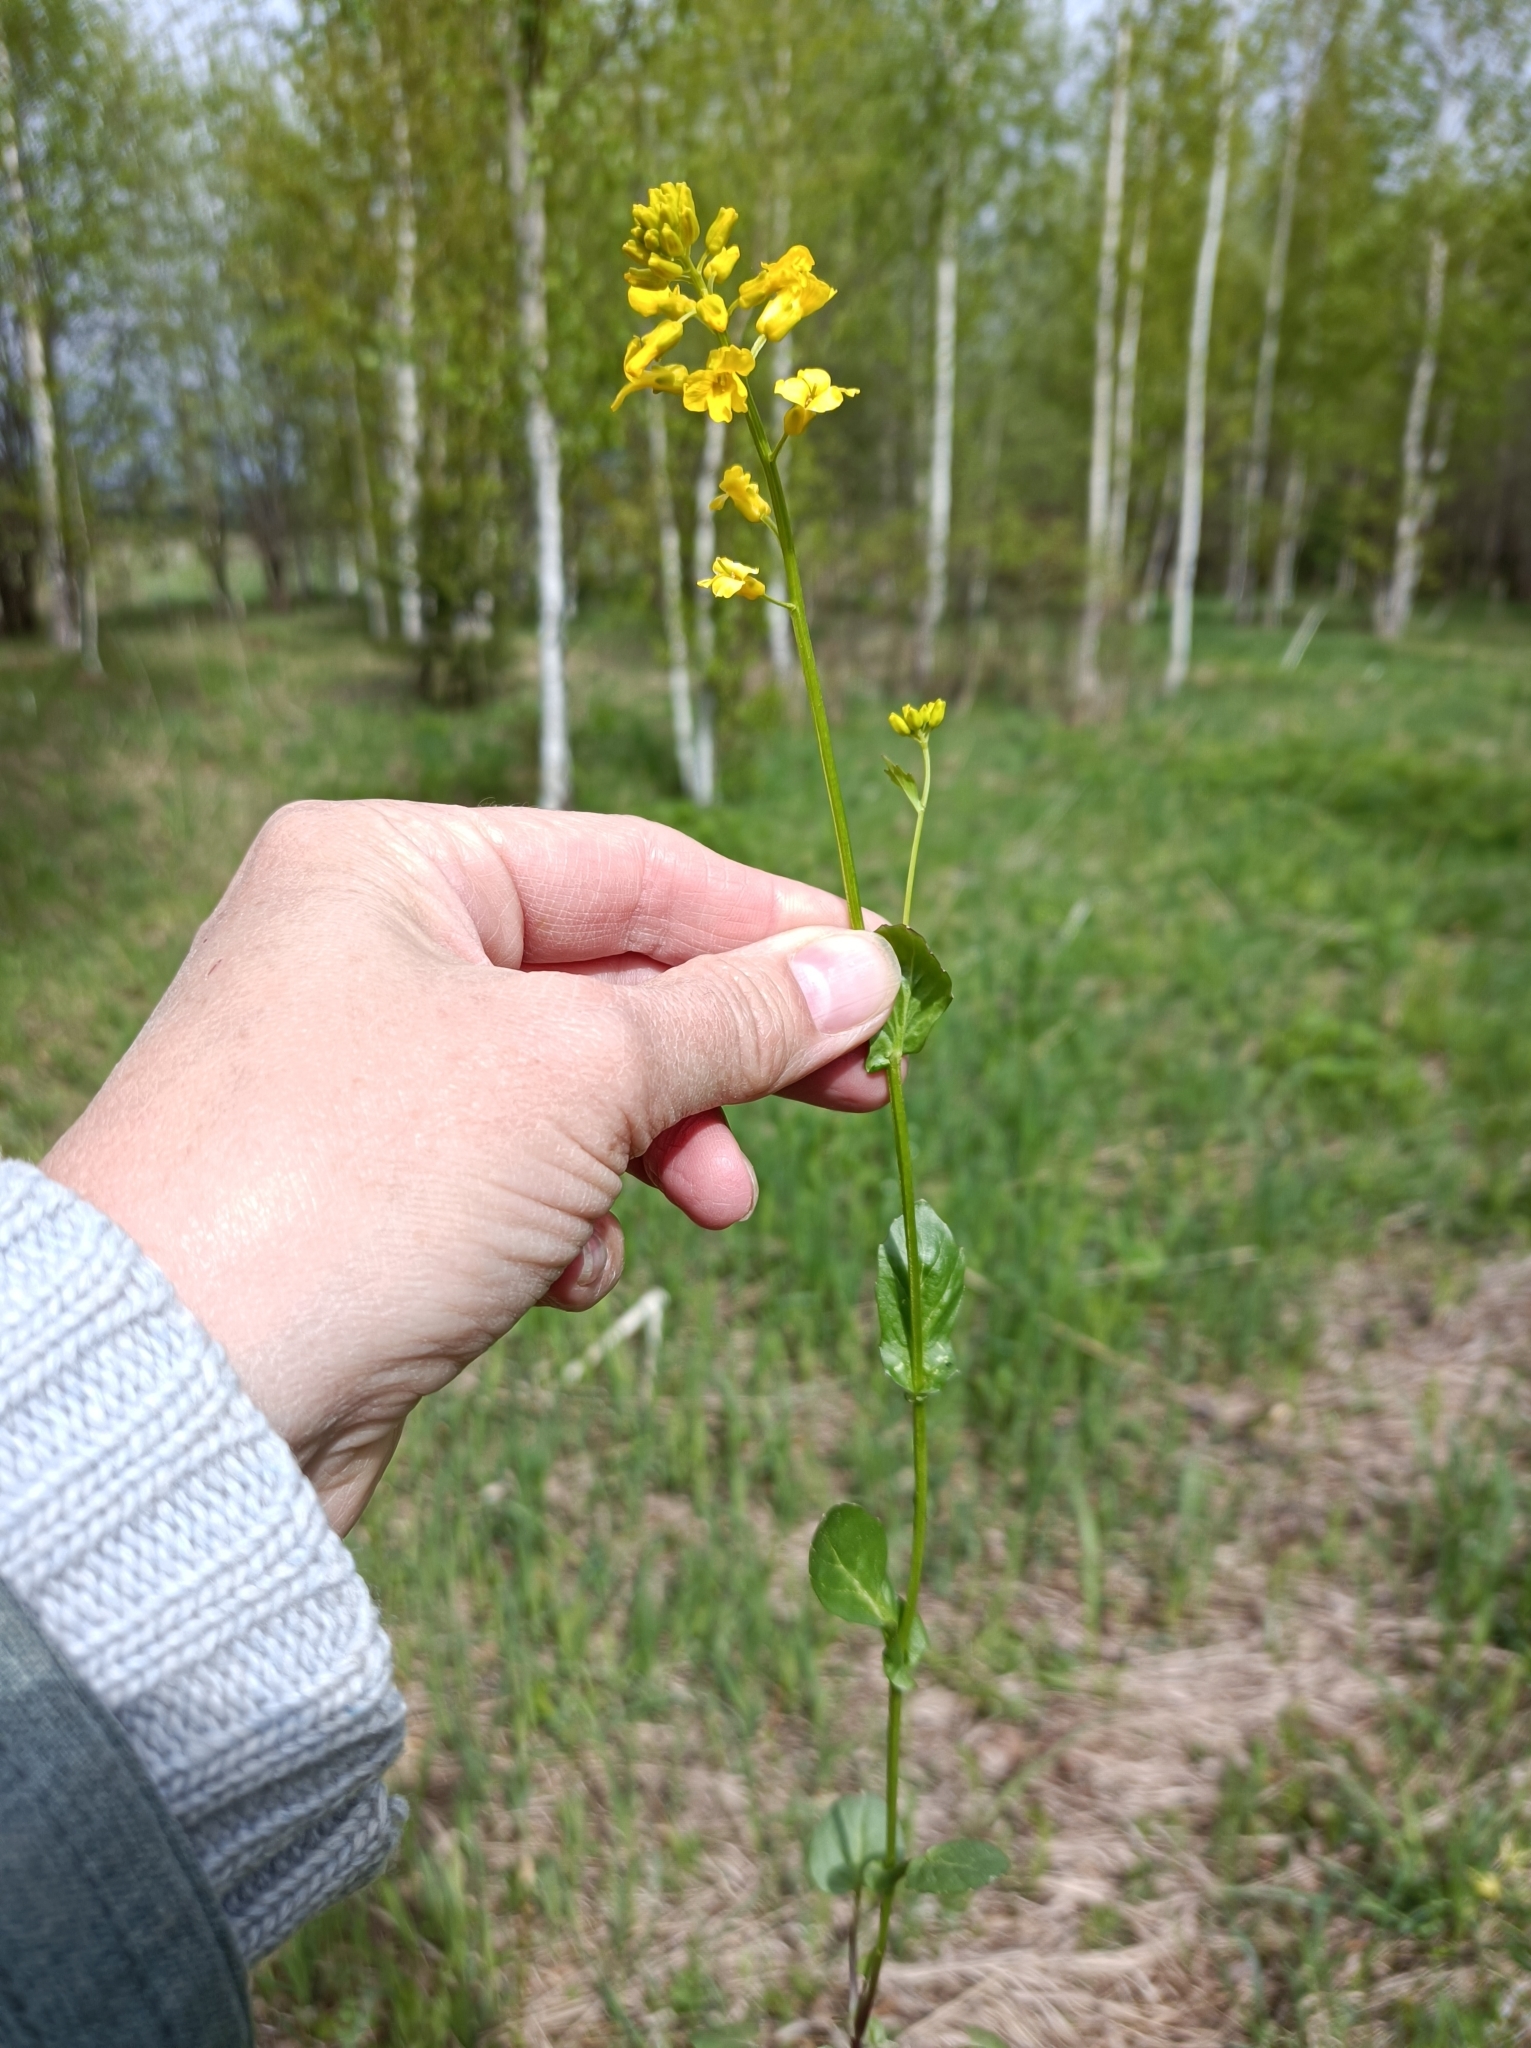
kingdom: Plantae
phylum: Tracheophyta
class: Magnoliopsida
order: Brassicales
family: Brassicaceae
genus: Barbarea
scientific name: Barbarea vulgaris
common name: Cressy-greens
